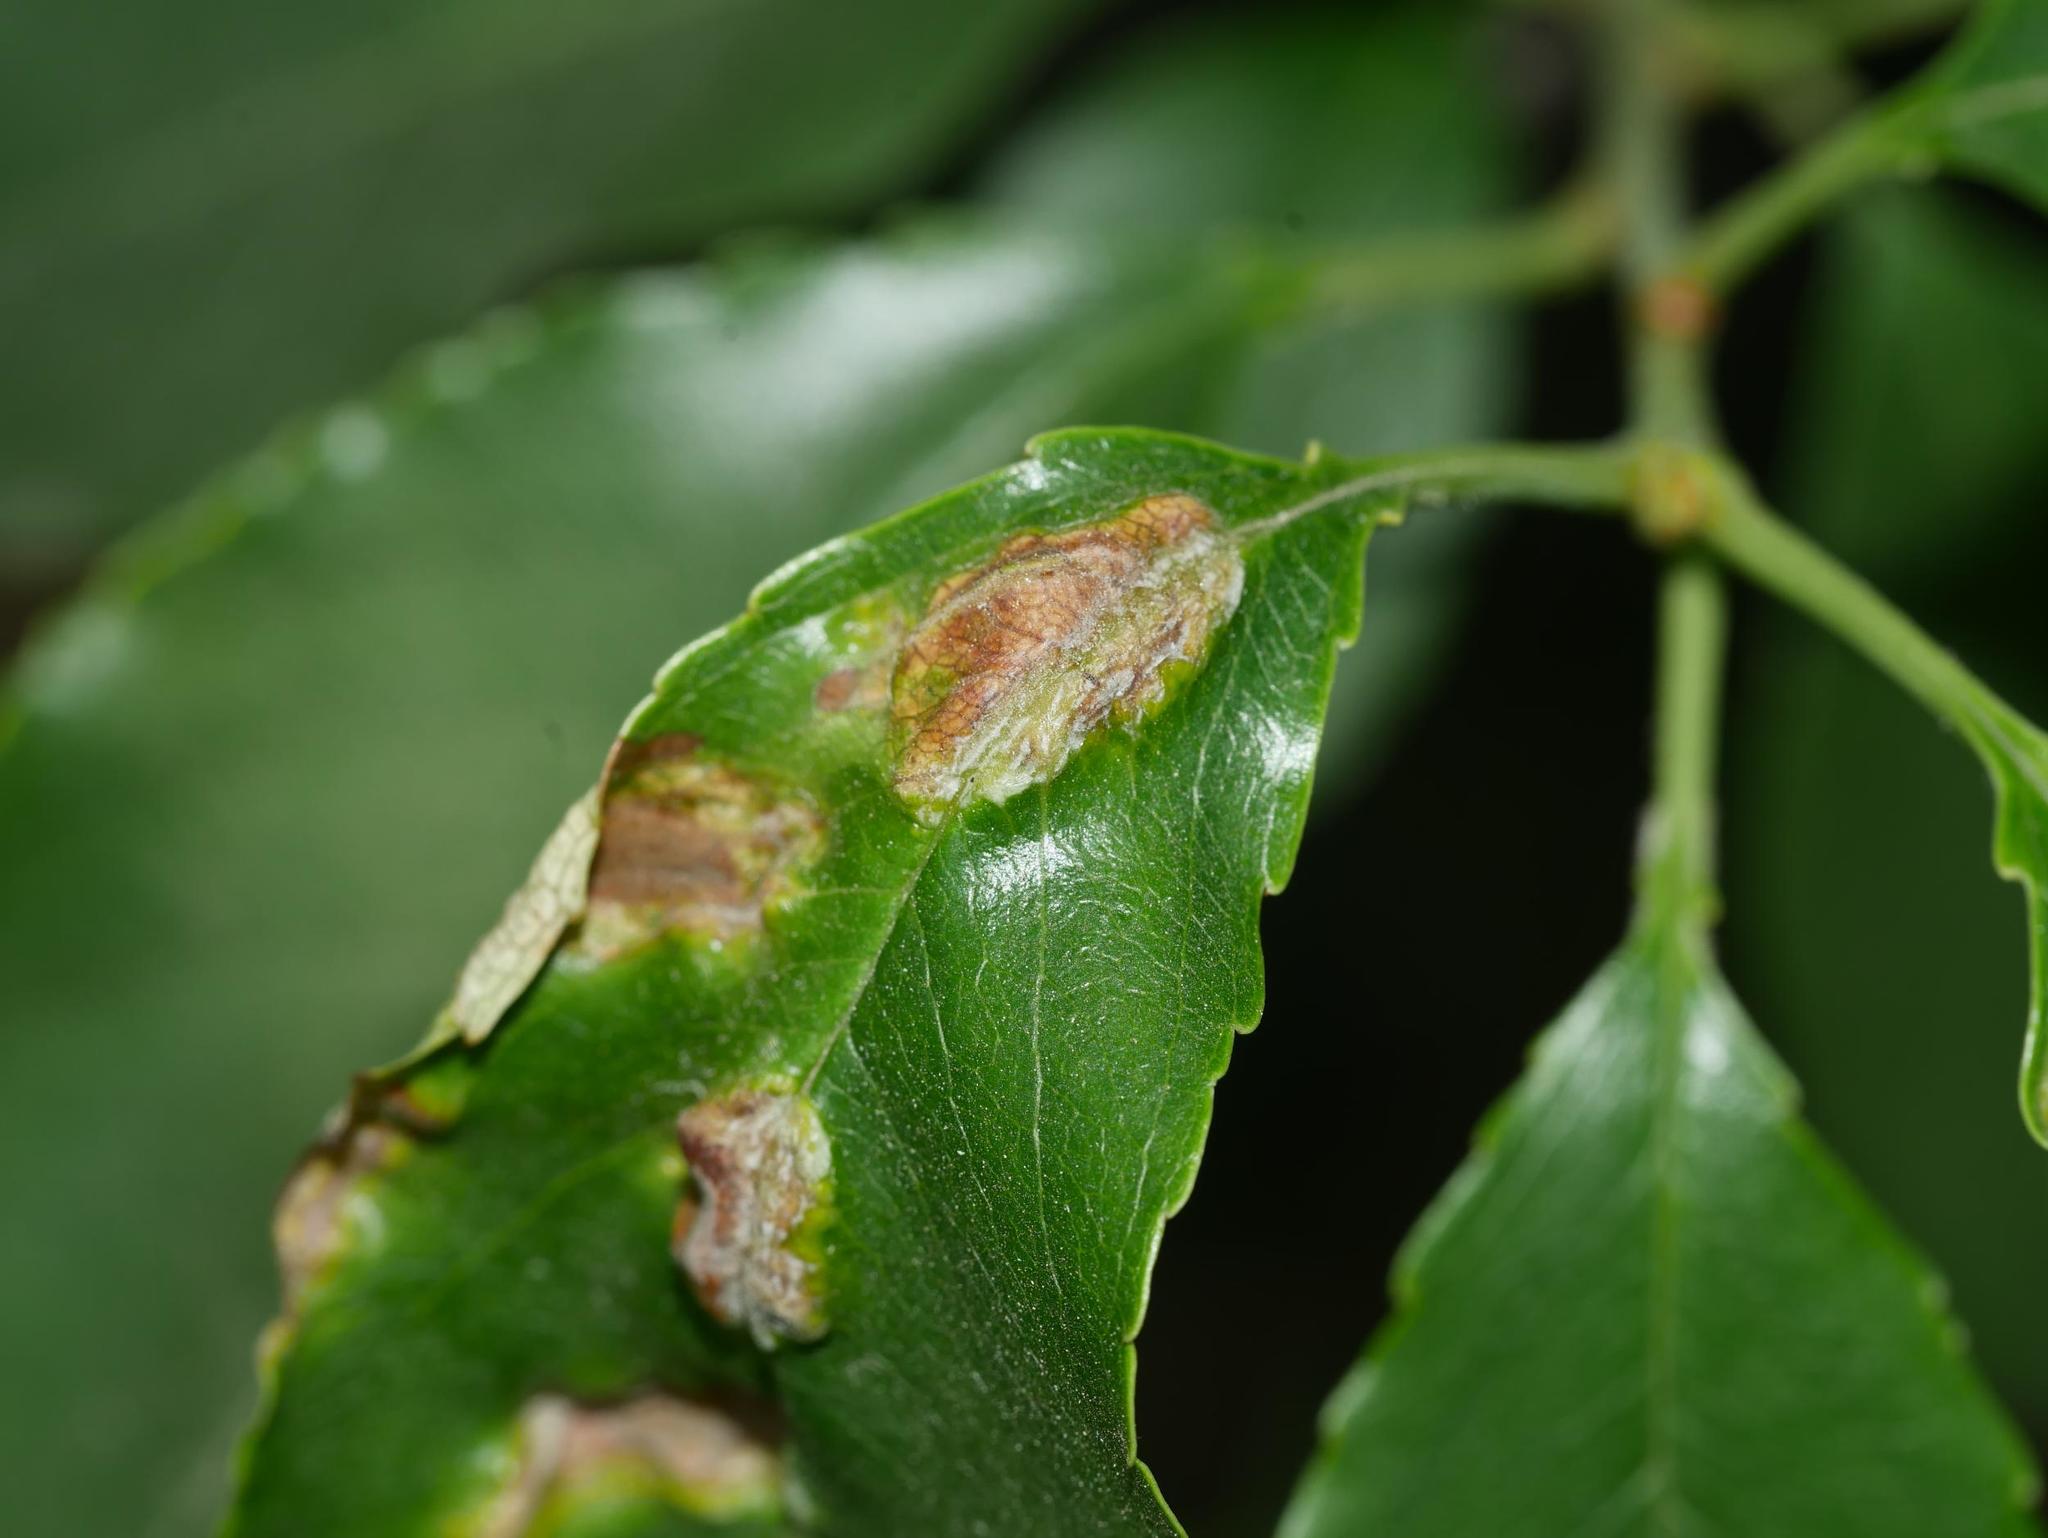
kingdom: Fungi
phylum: Ascomycota
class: Taphrinomycetes
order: Taphrinales
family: Taphrinaceae
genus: Taphrina
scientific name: Taphrina farlowii
